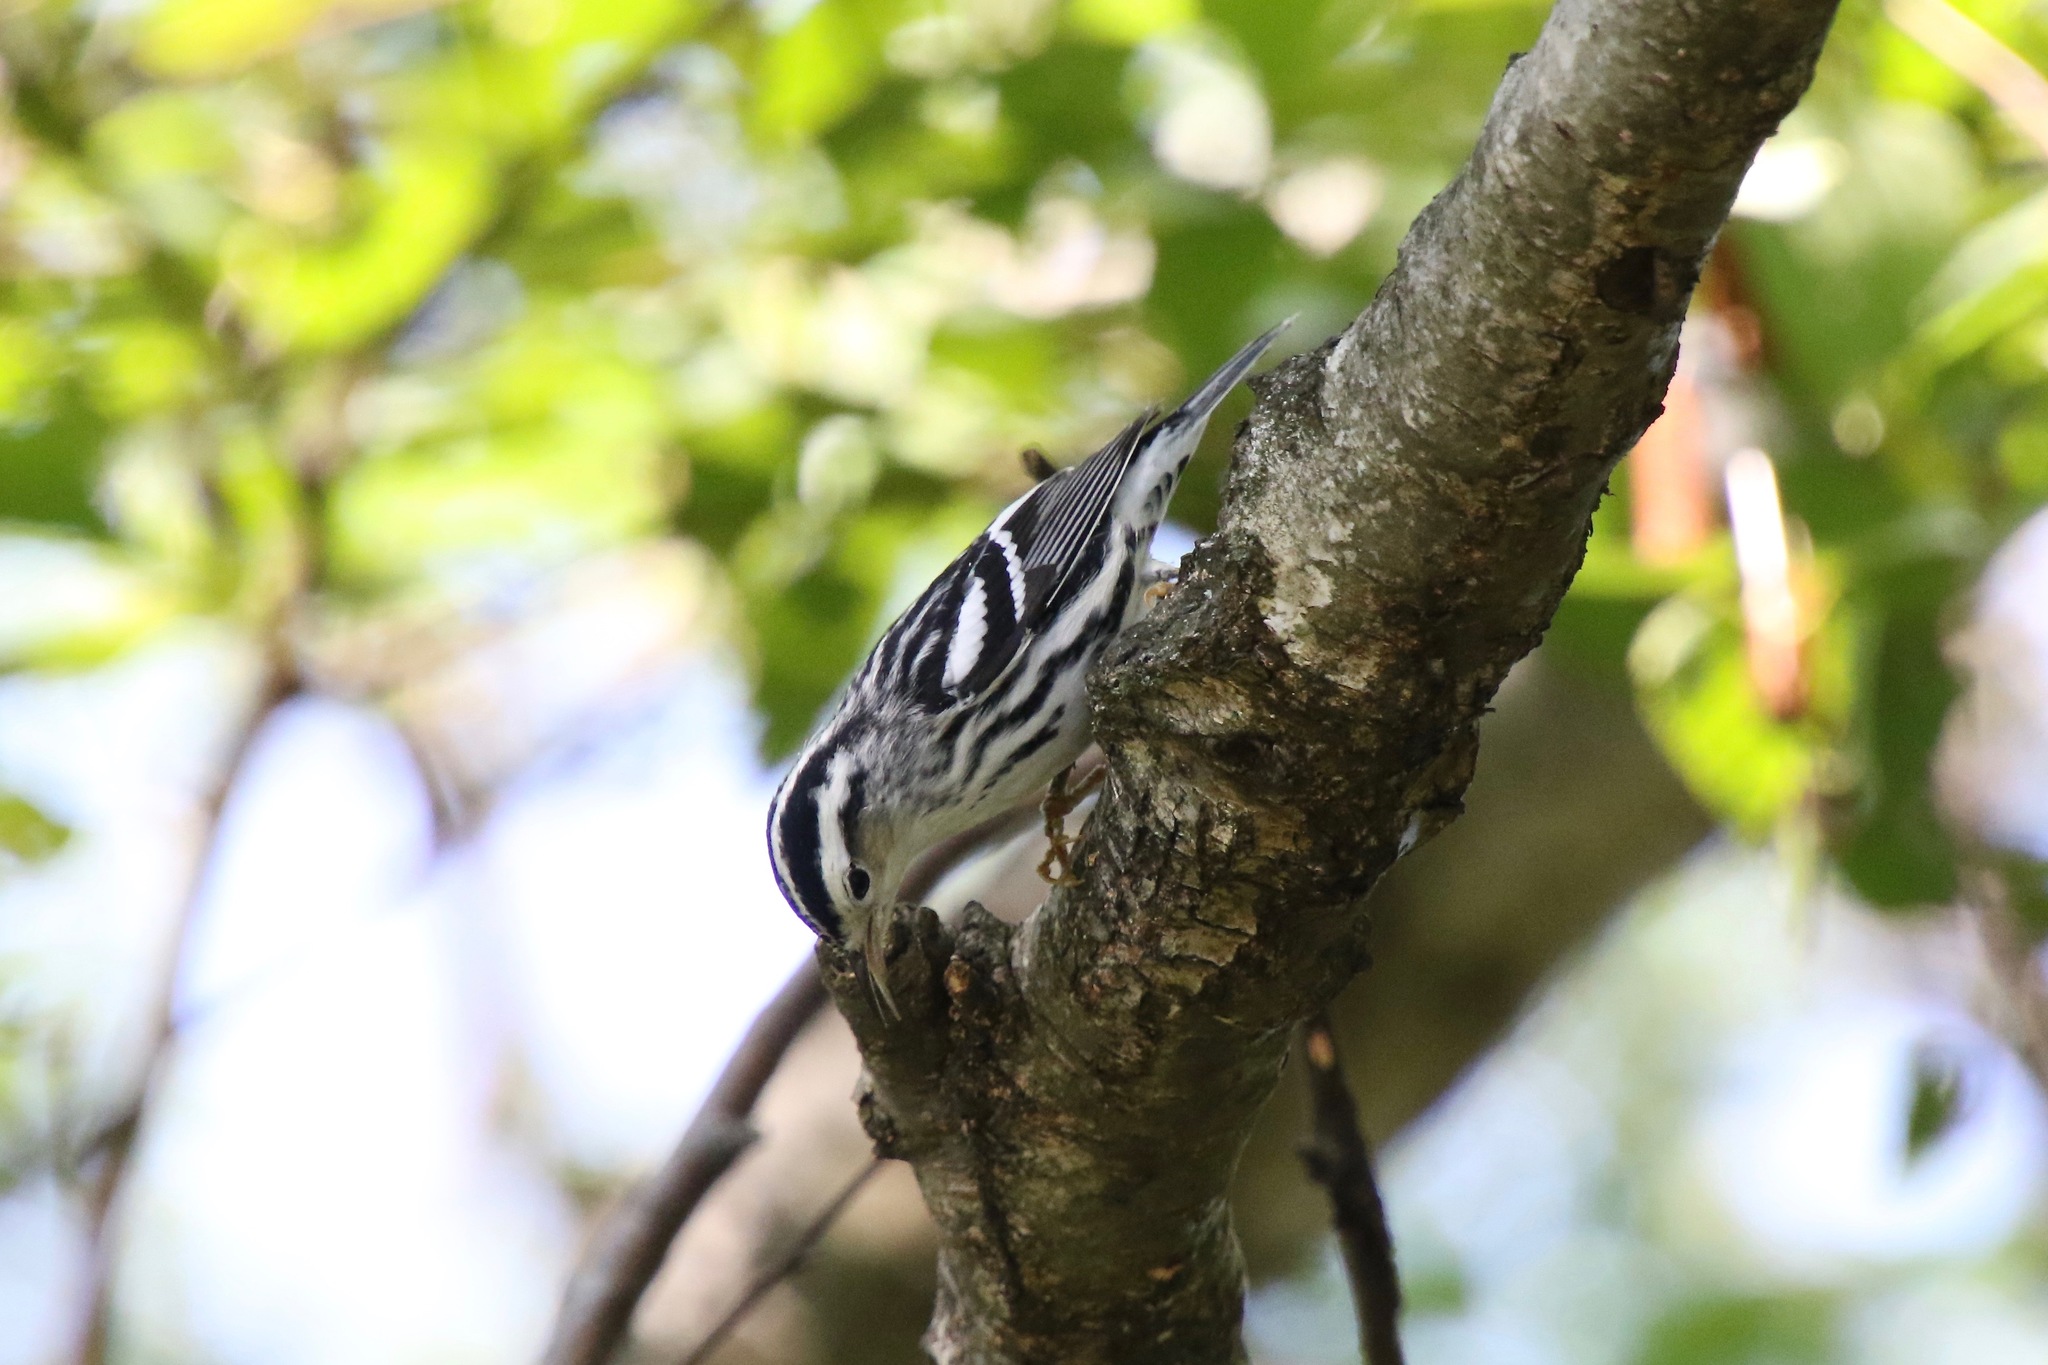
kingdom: Animalia
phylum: Chordata
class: Aves
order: Passeriformes
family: Parulidae
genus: Mniotilta
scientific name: Mniotilta varia
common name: Black-and-white warbler
